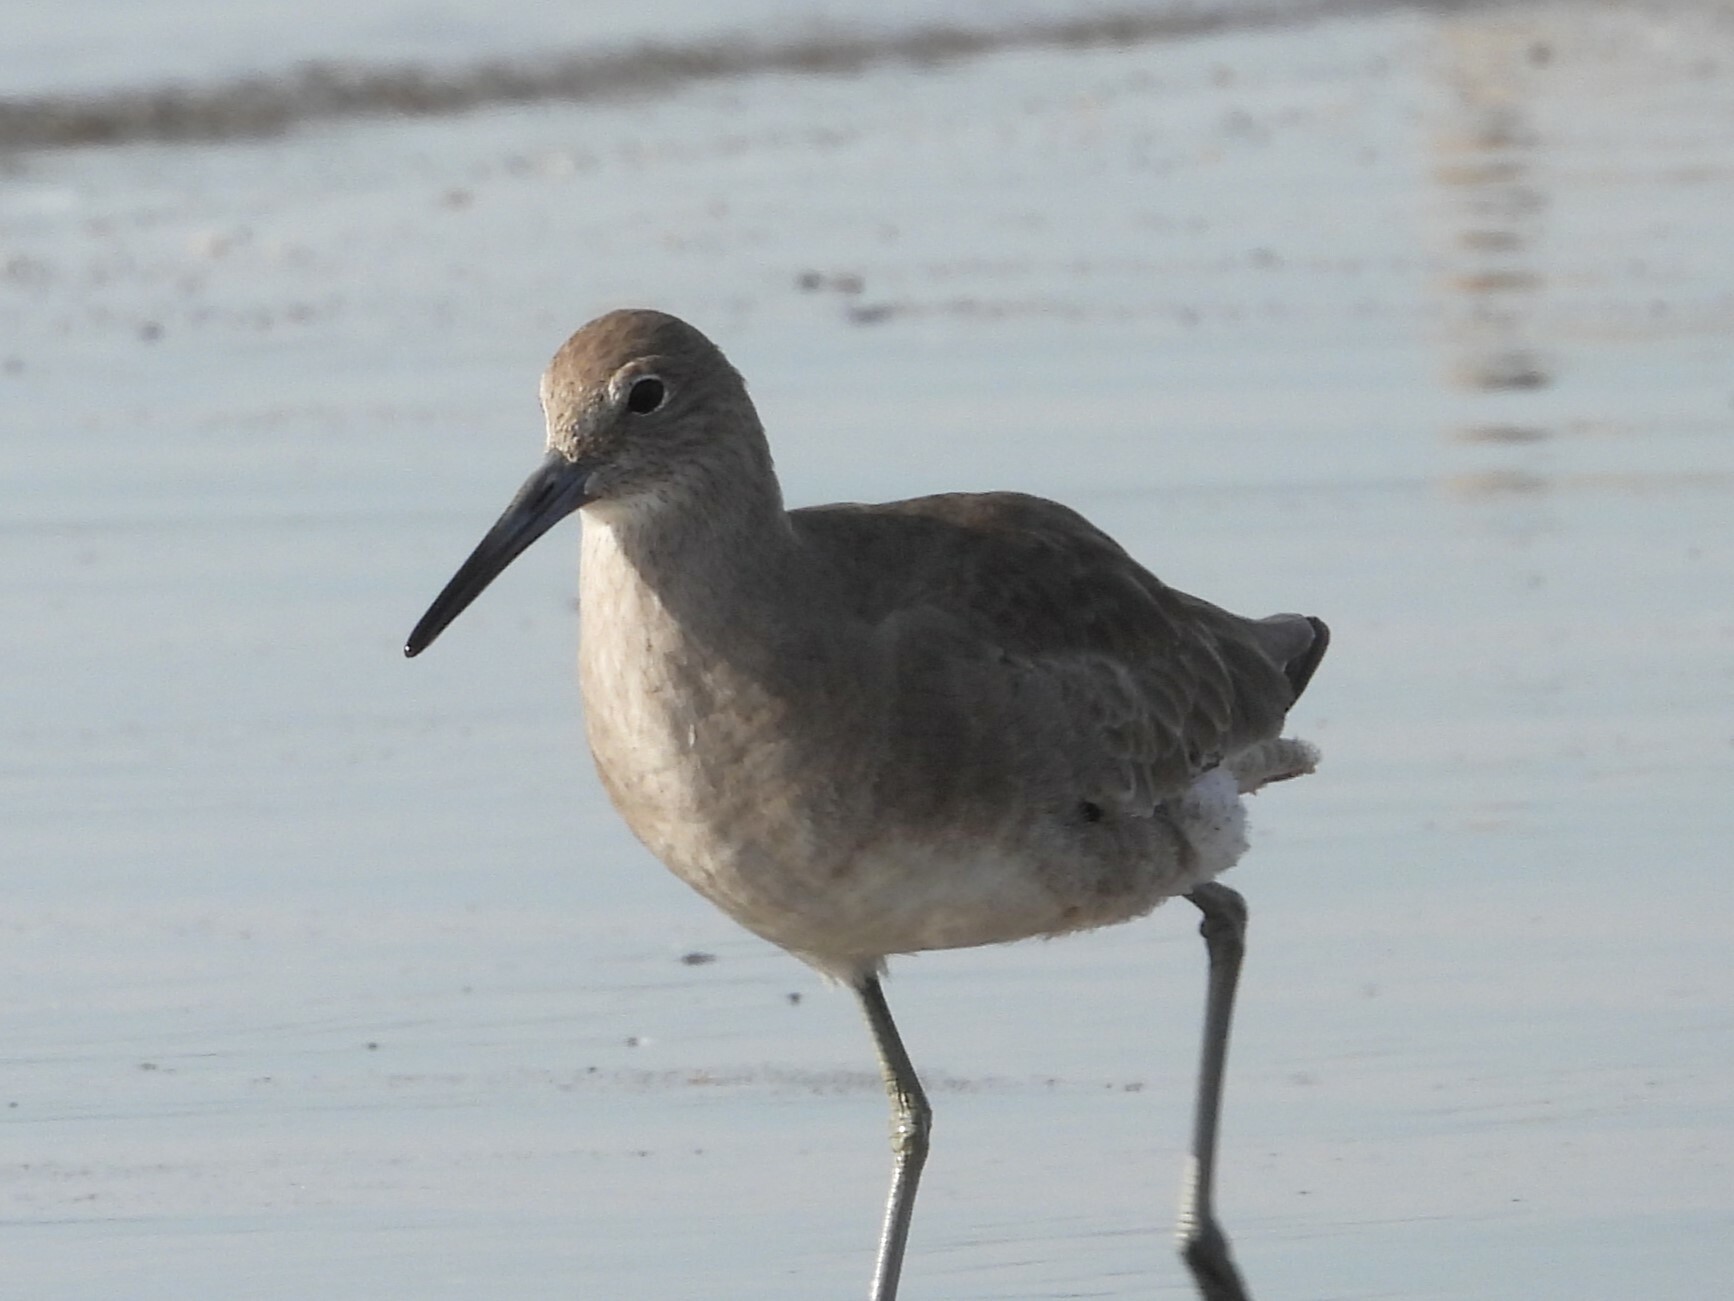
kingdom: Animalia
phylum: Chordata
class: Aves
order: Charadriiformes
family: Scolopacidae
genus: Tringa
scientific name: Tringa semipalmata
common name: Willet
